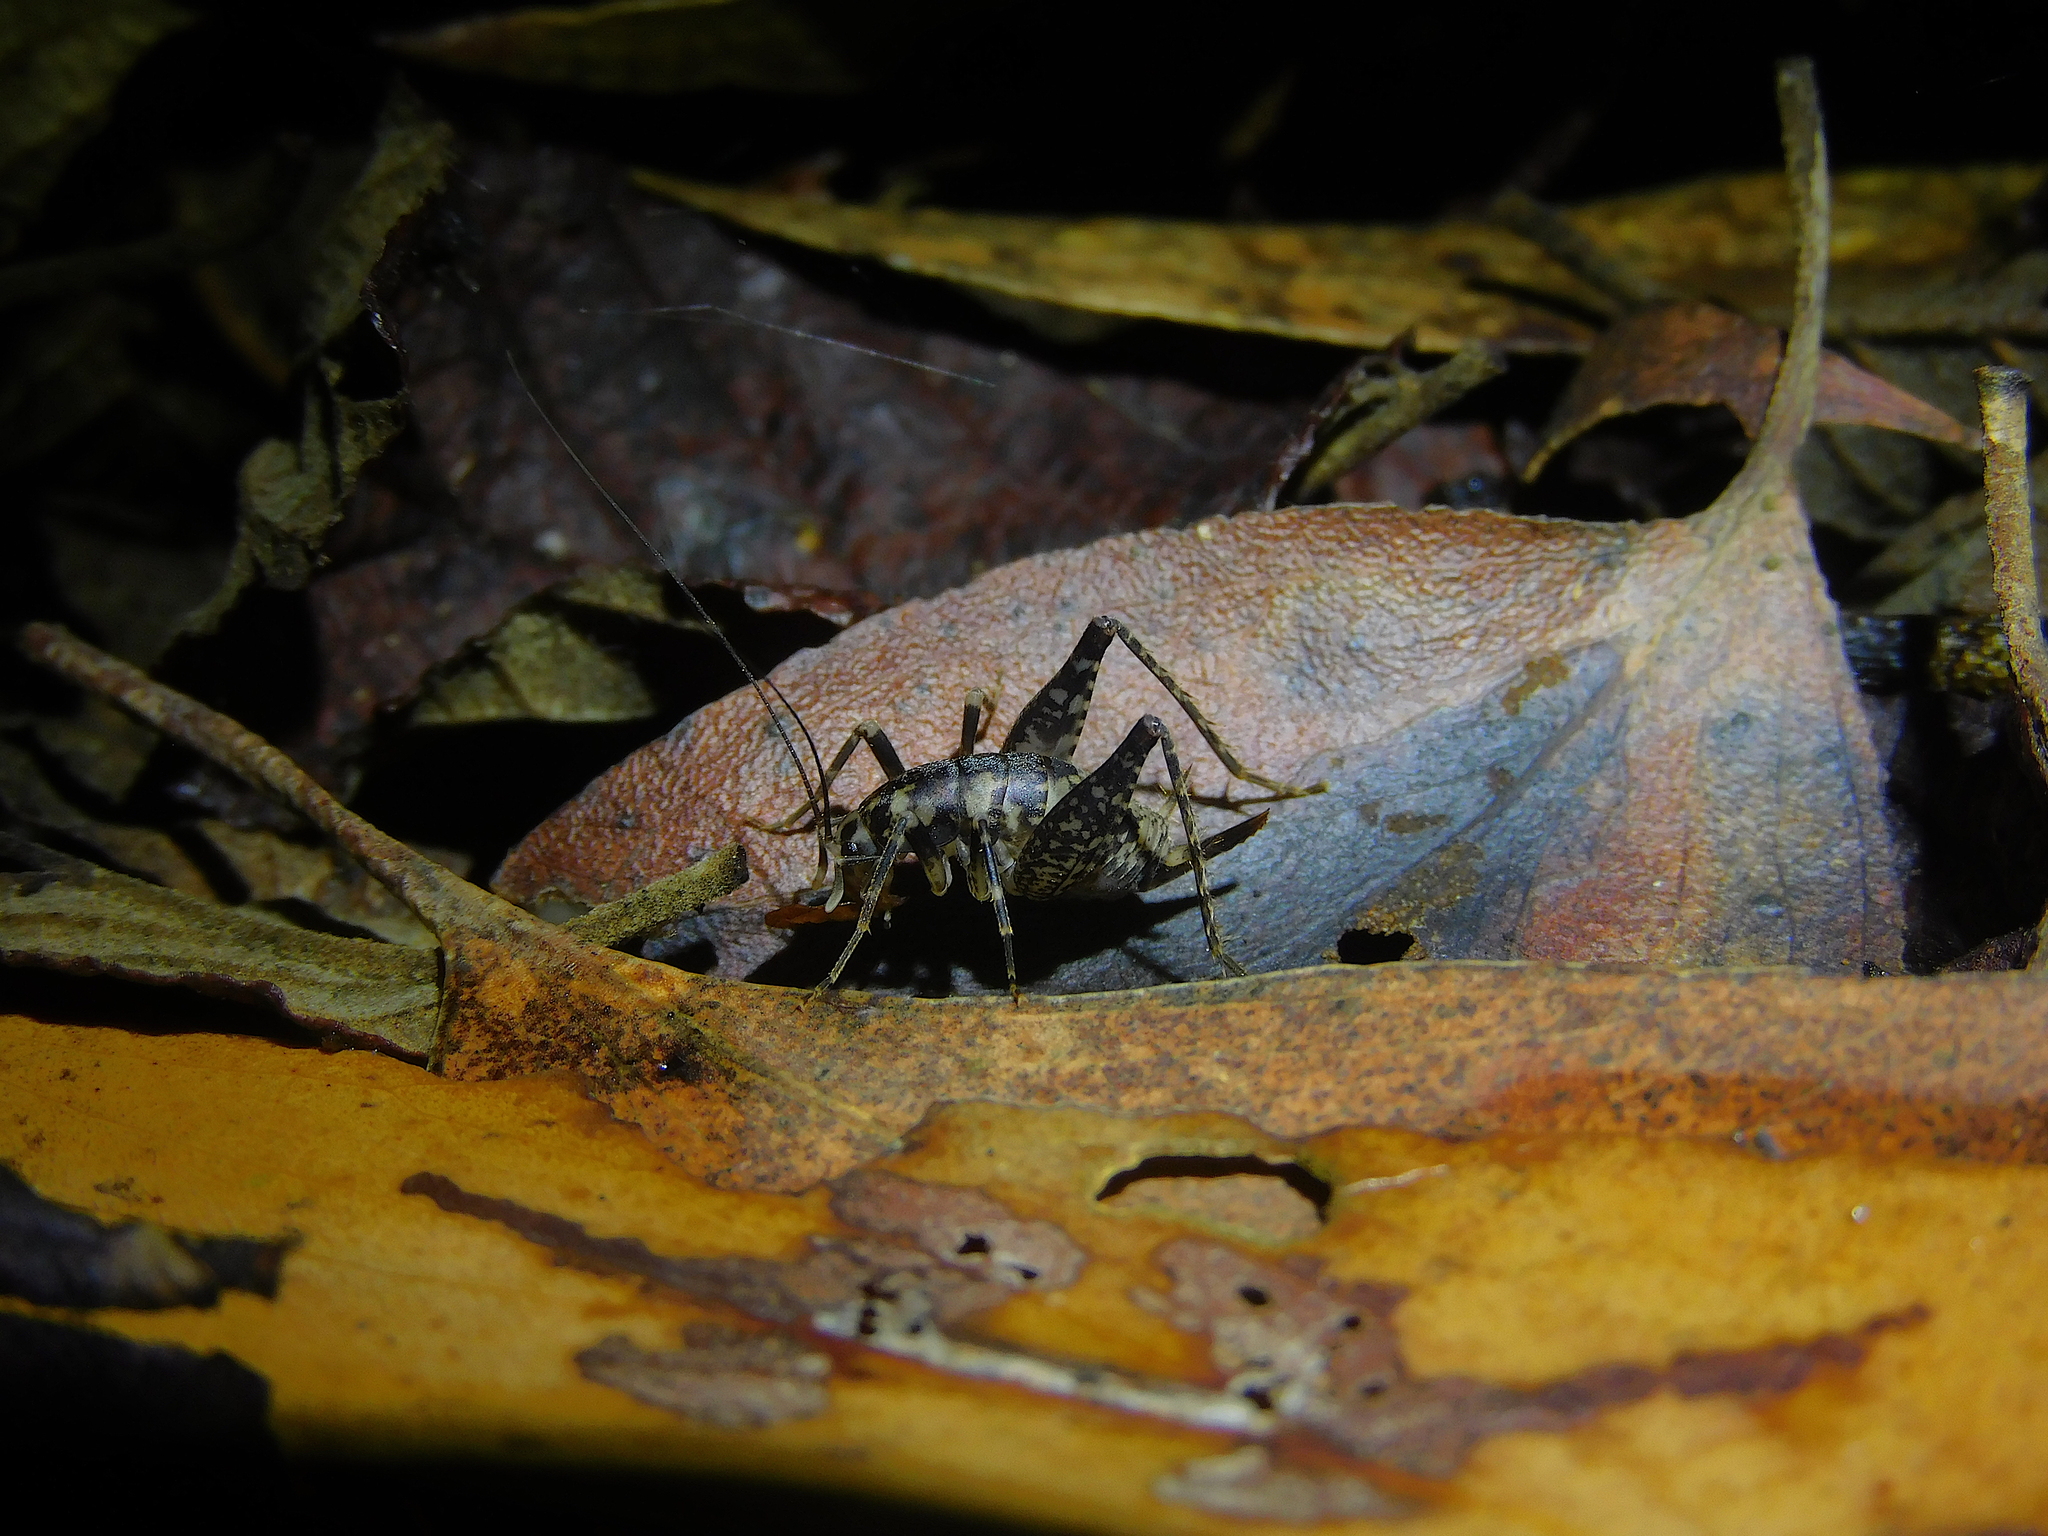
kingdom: Animalia
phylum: Arthropoda
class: Insecta
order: Orthoptera
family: Rhaphidophoridae
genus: Parvotettix
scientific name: Parvotettix domesticus
